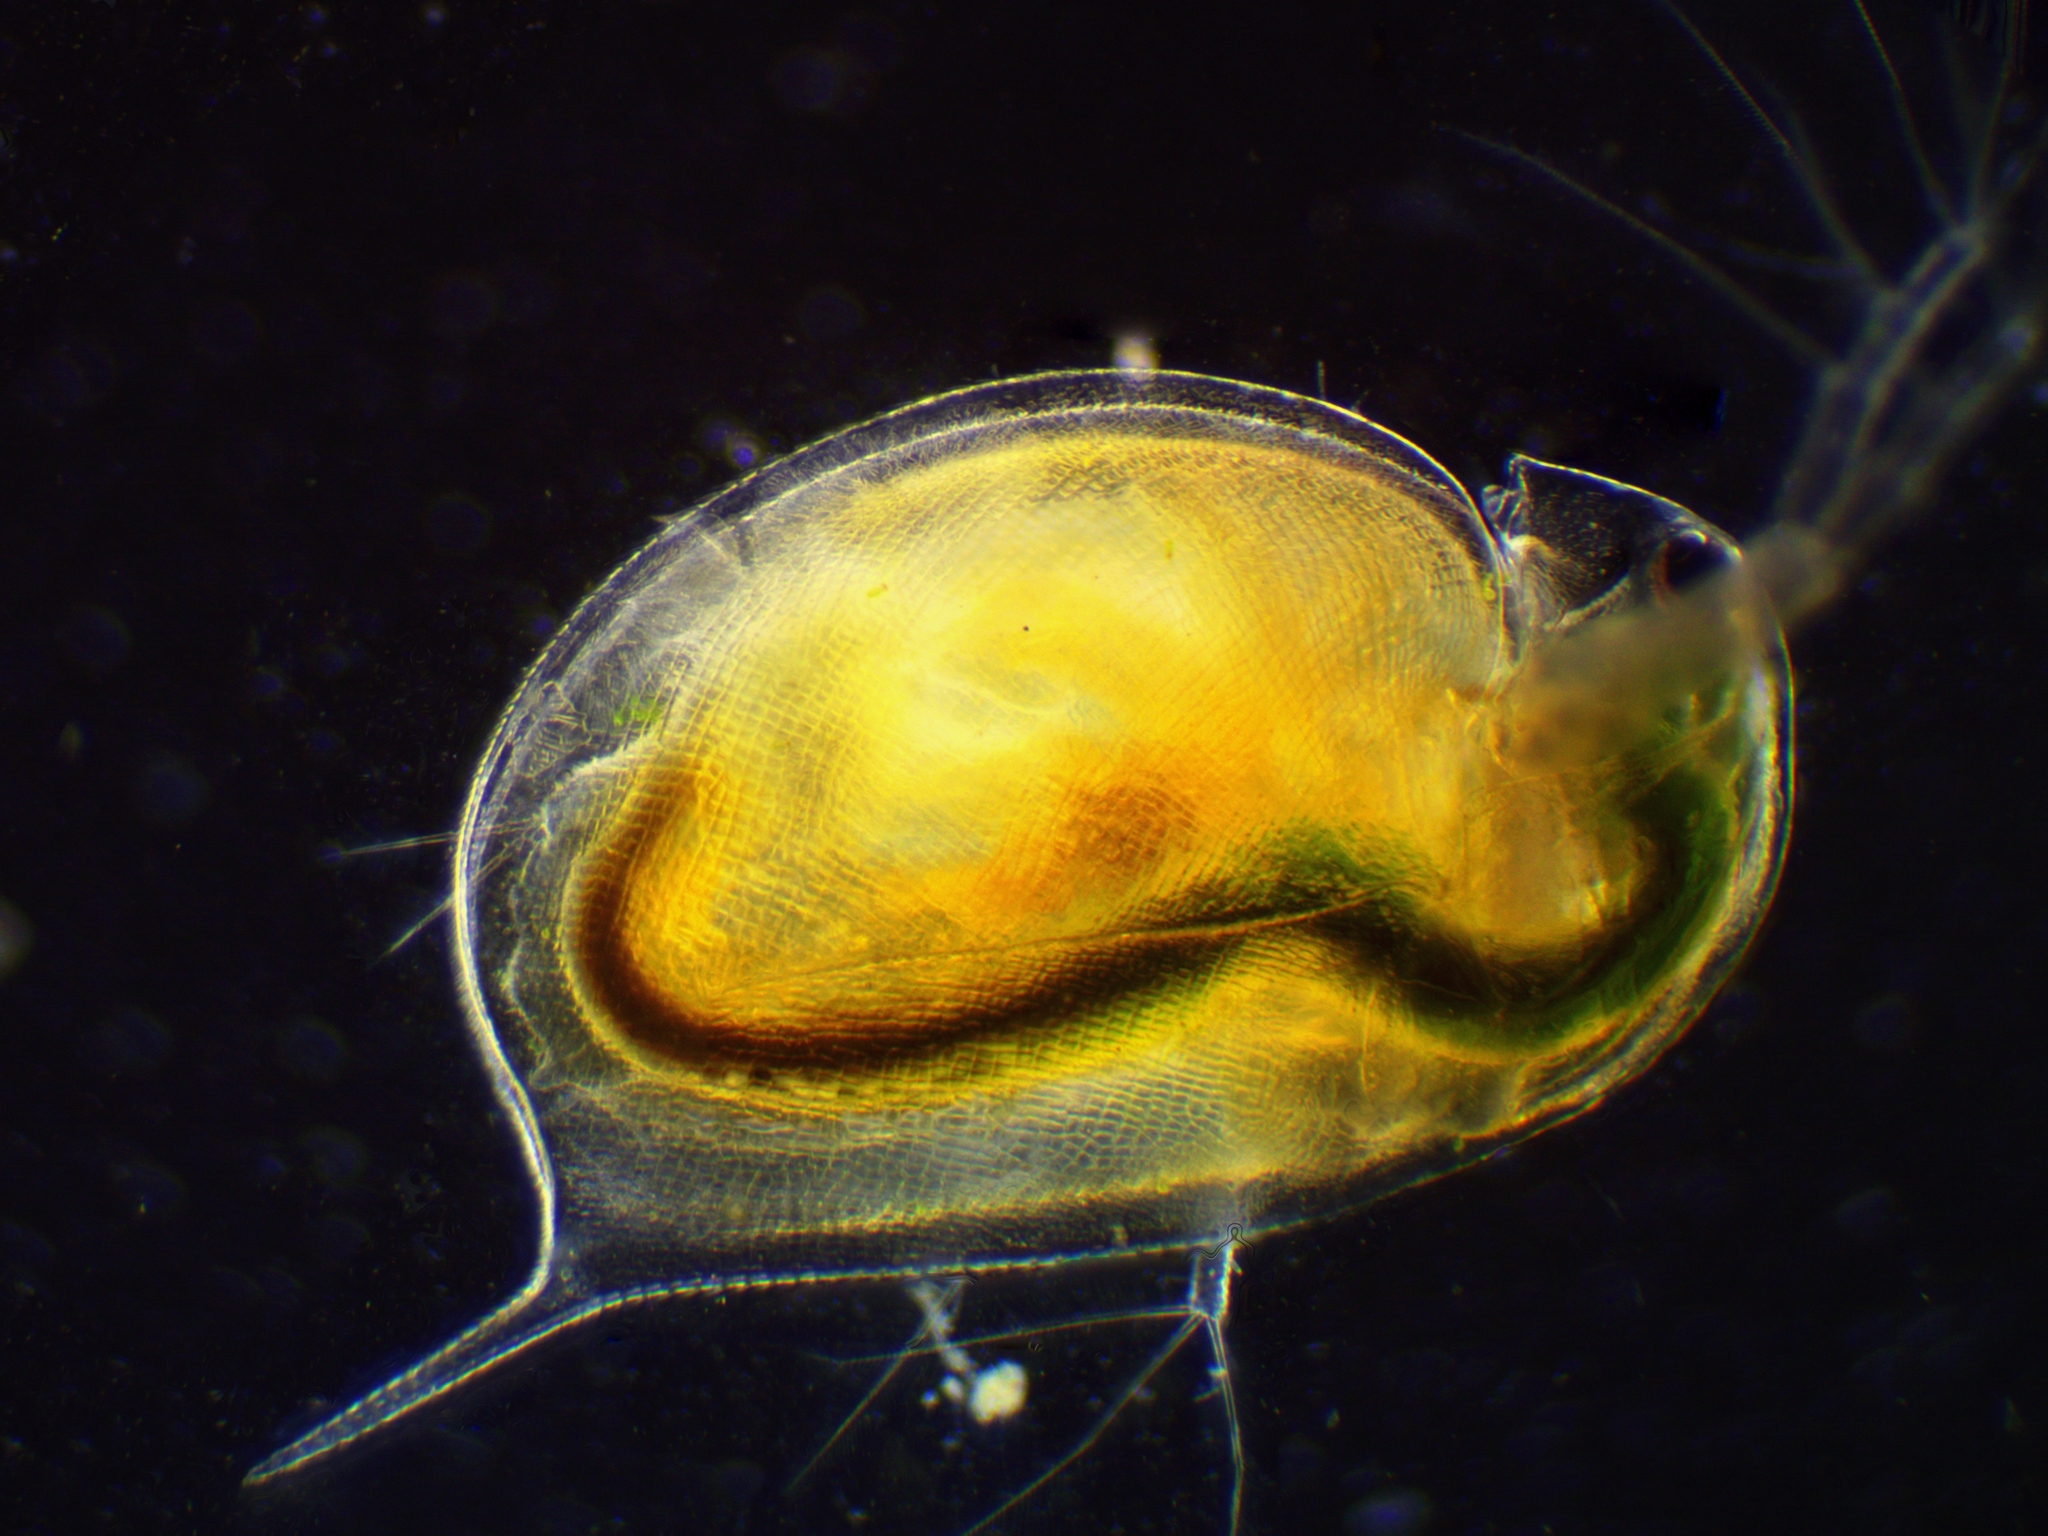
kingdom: Animalia
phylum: Arthropoda
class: Branchiopoda
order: Diplostraca
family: Daphniidae
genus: Daphnia
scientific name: Daphnia magna
